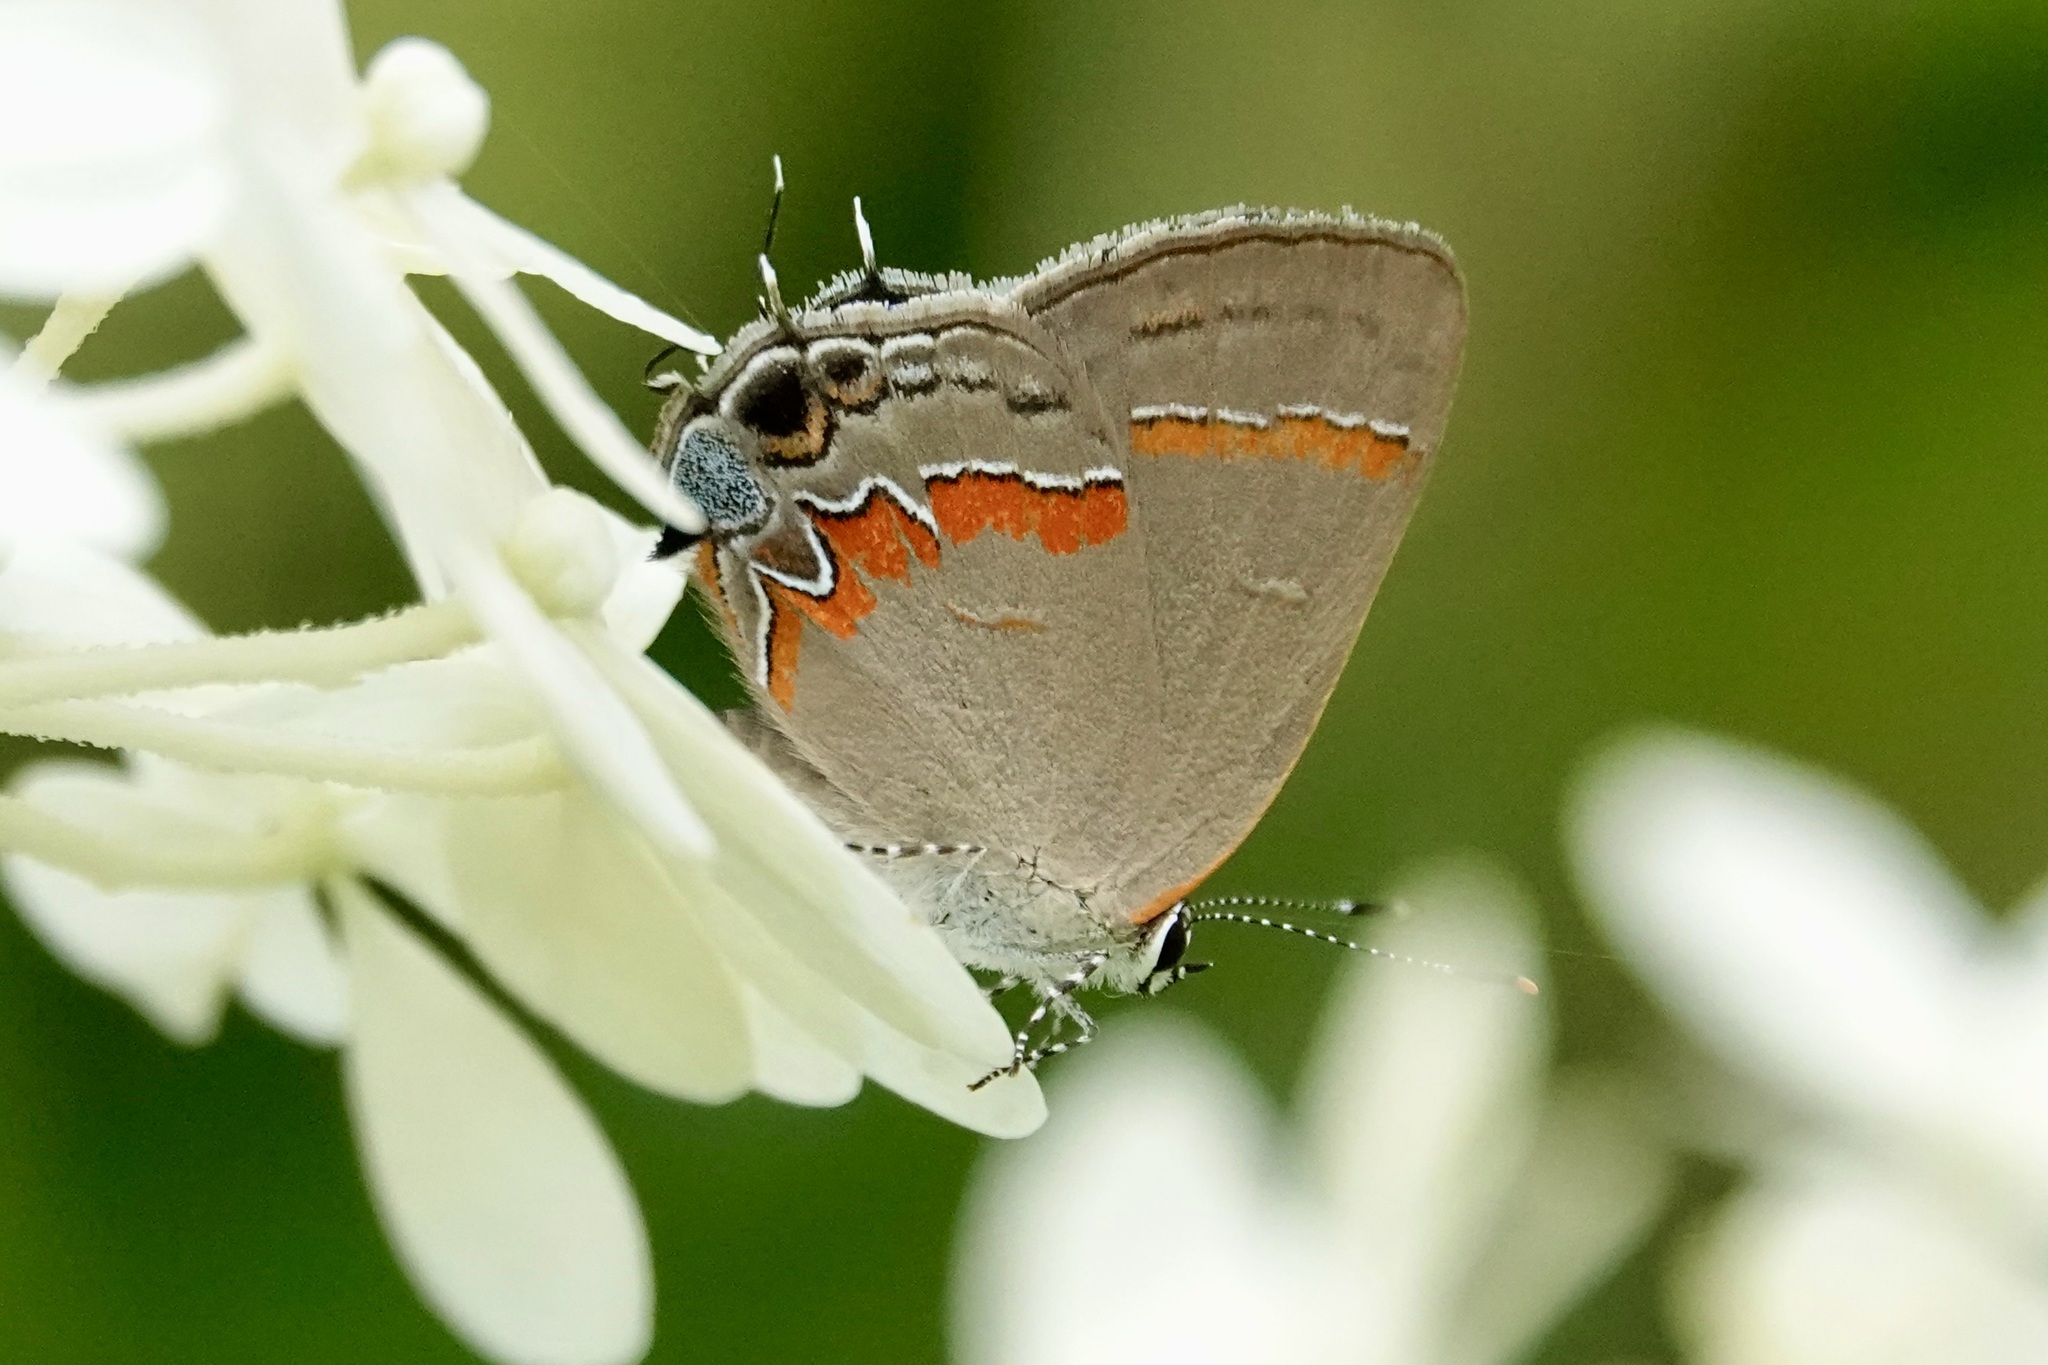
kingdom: Animalia
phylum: Arthropoda
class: Insecta
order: Lepidoptera
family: Lycaenidae
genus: Calycopis
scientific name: Calycopis cecrops
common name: Red-banded hairstreak
